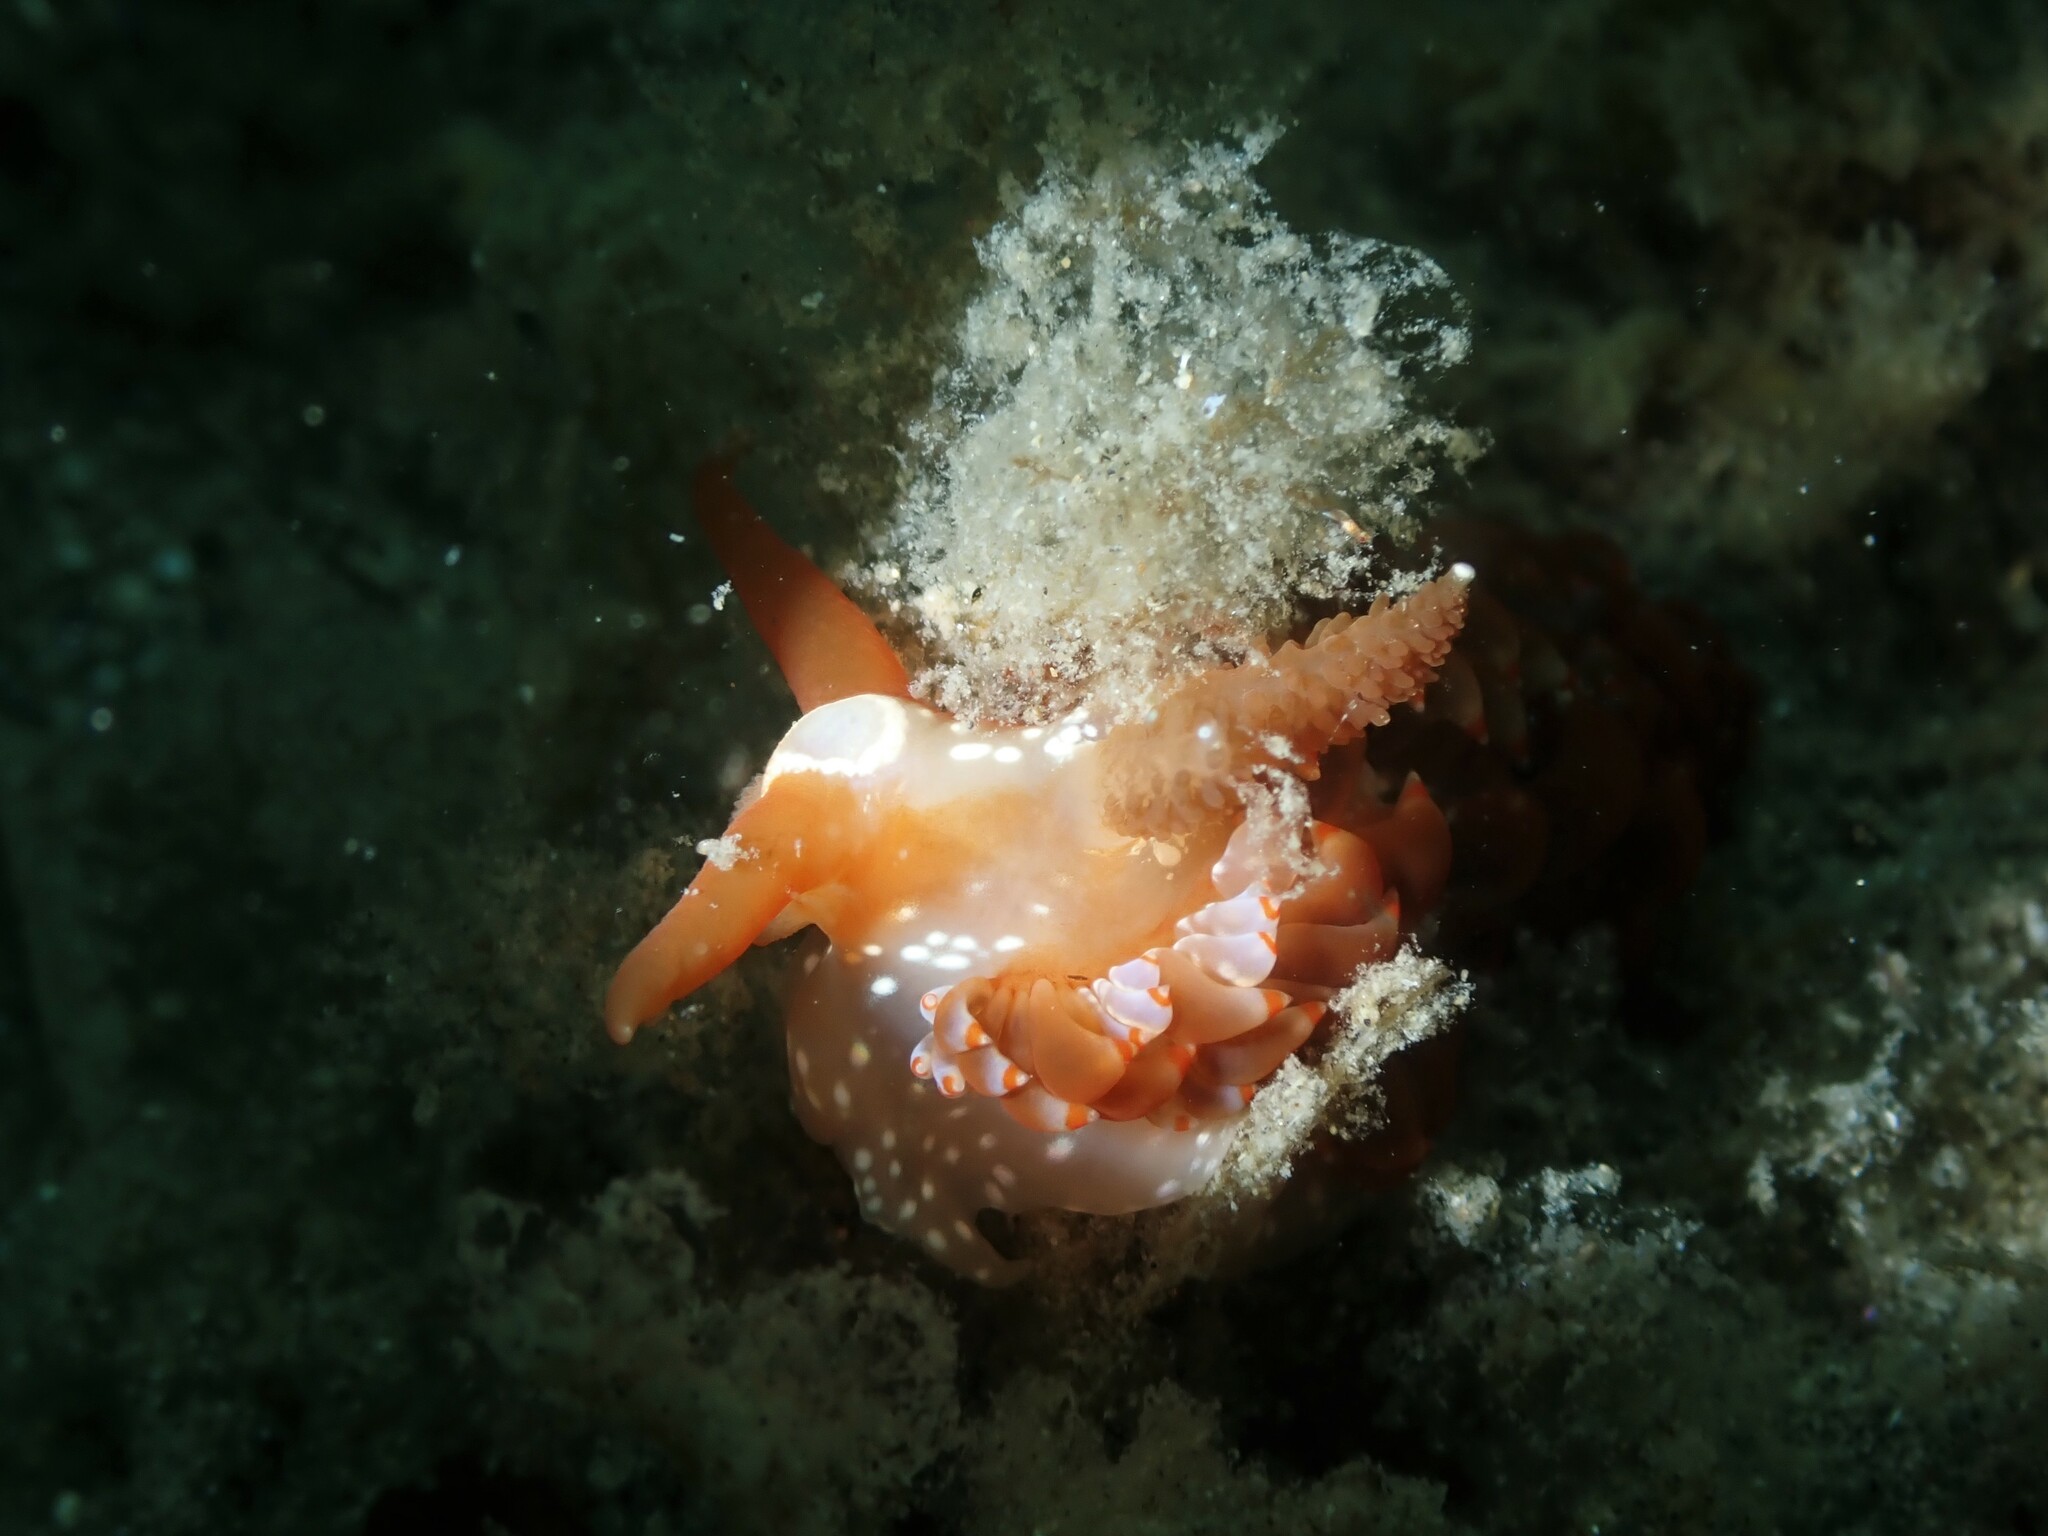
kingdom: Animalia
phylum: Mollusca
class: Gastropoda
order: Nudibranchia
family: Aeolidiidae
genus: Baeolidia
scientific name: Baeolidia australis
